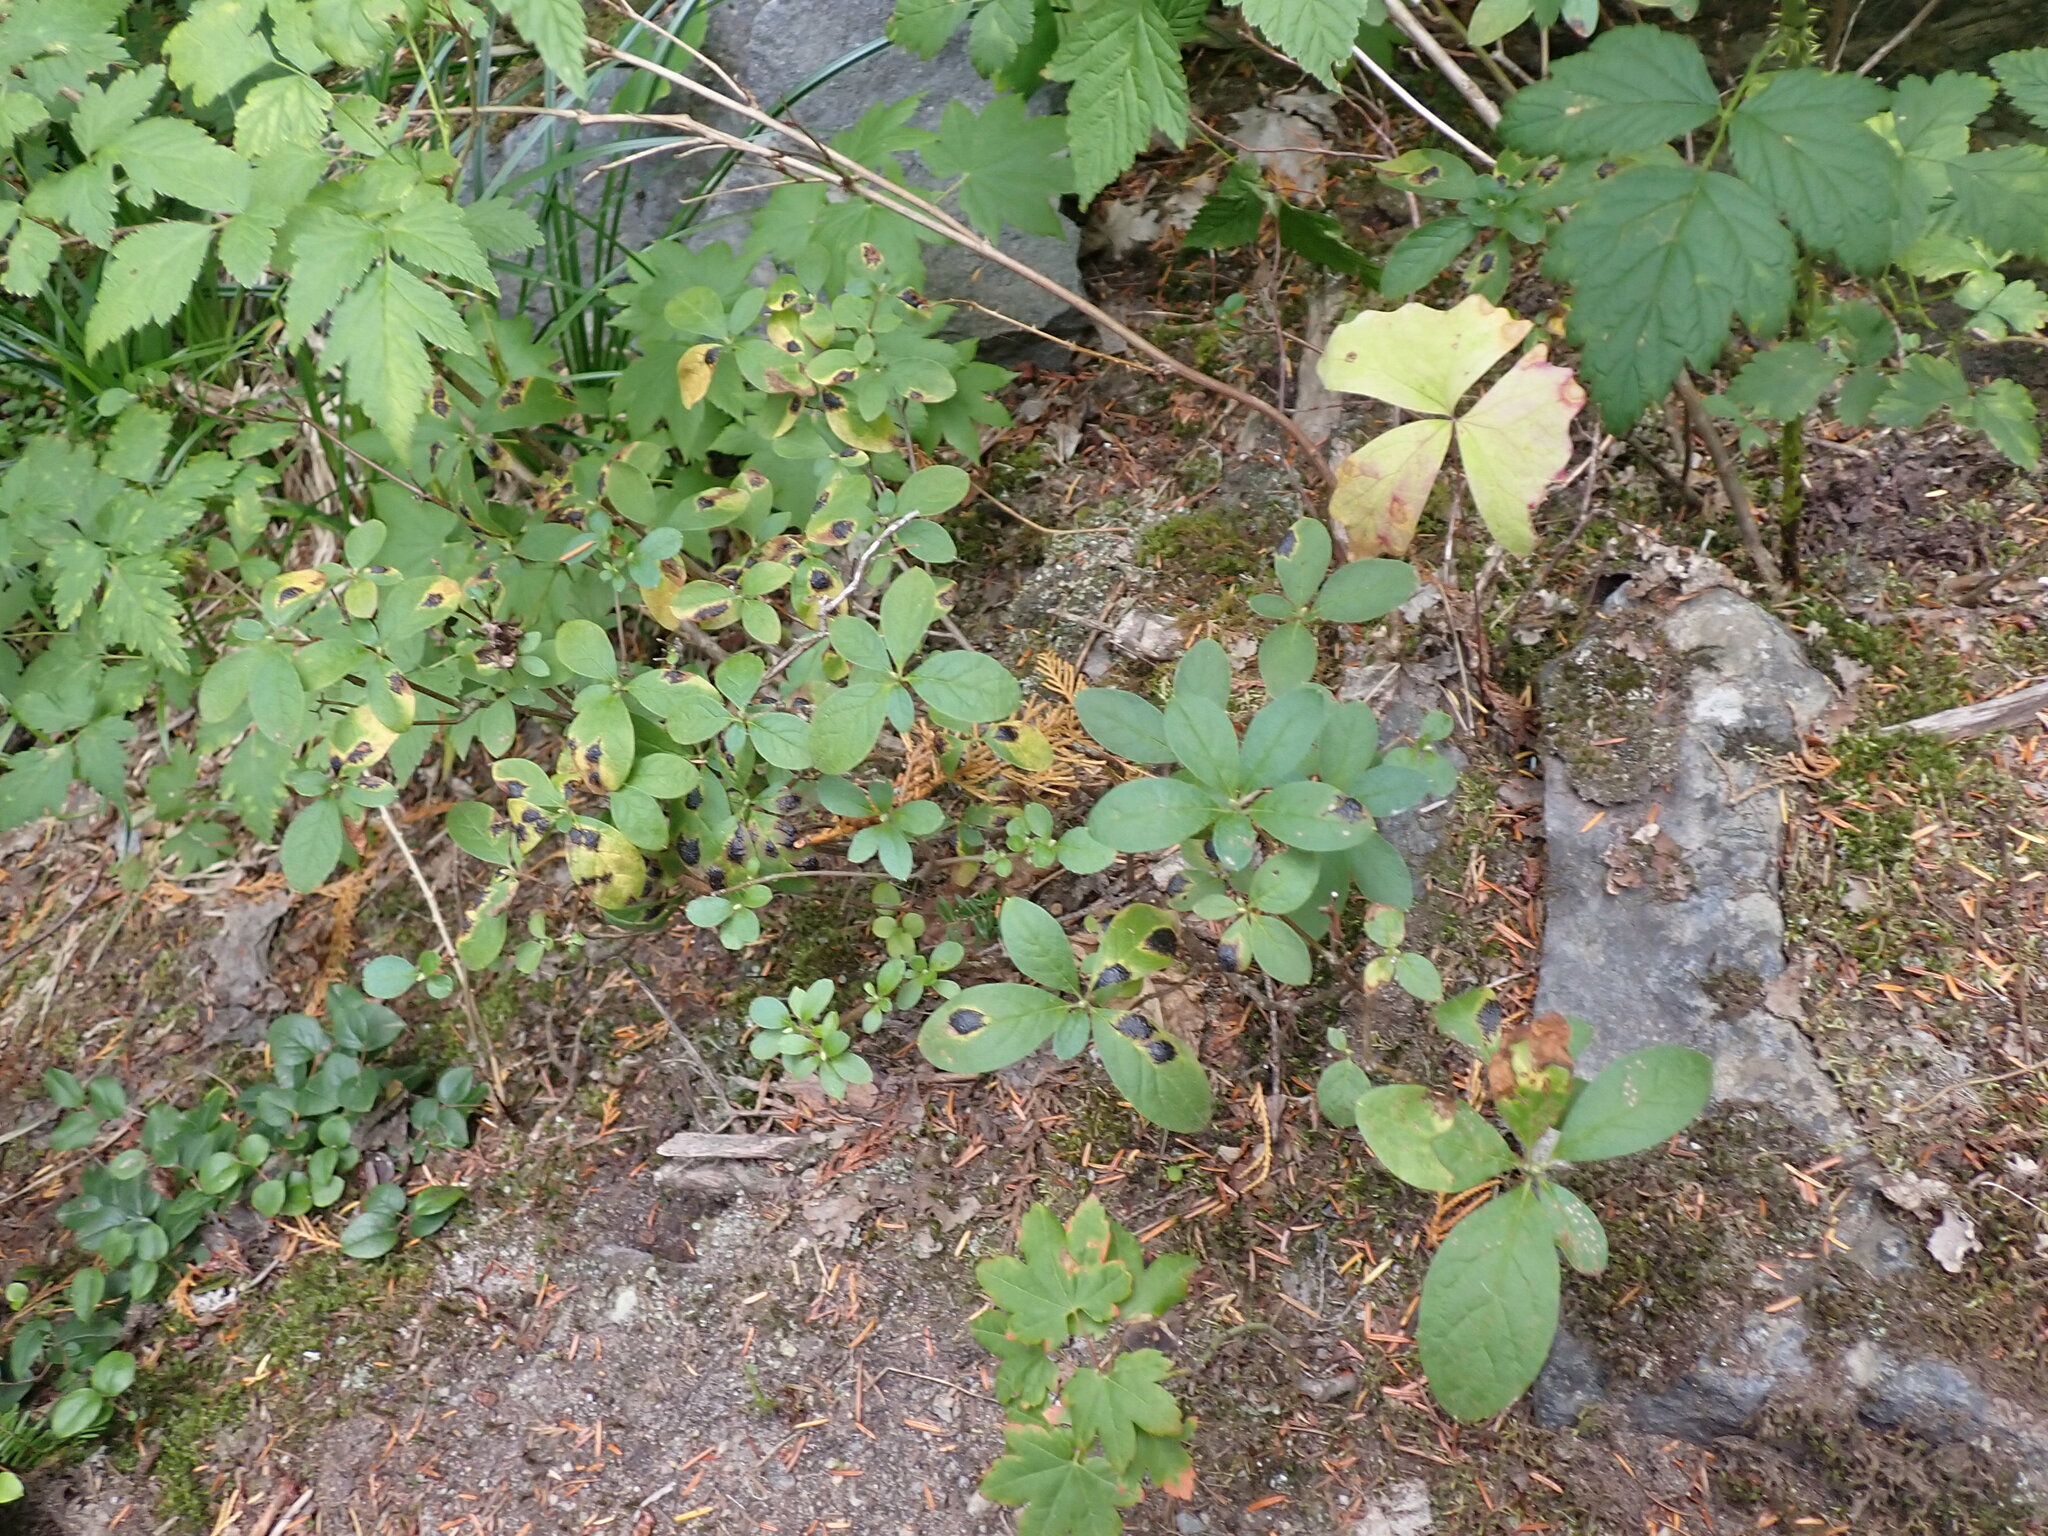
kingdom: Plantae
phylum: Tracheophyta
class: Magnoliopsida
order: Ericales
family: Ericaceae
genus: Rhododendron
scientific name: Rhododendron menziesii
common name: Pacific menziesia
